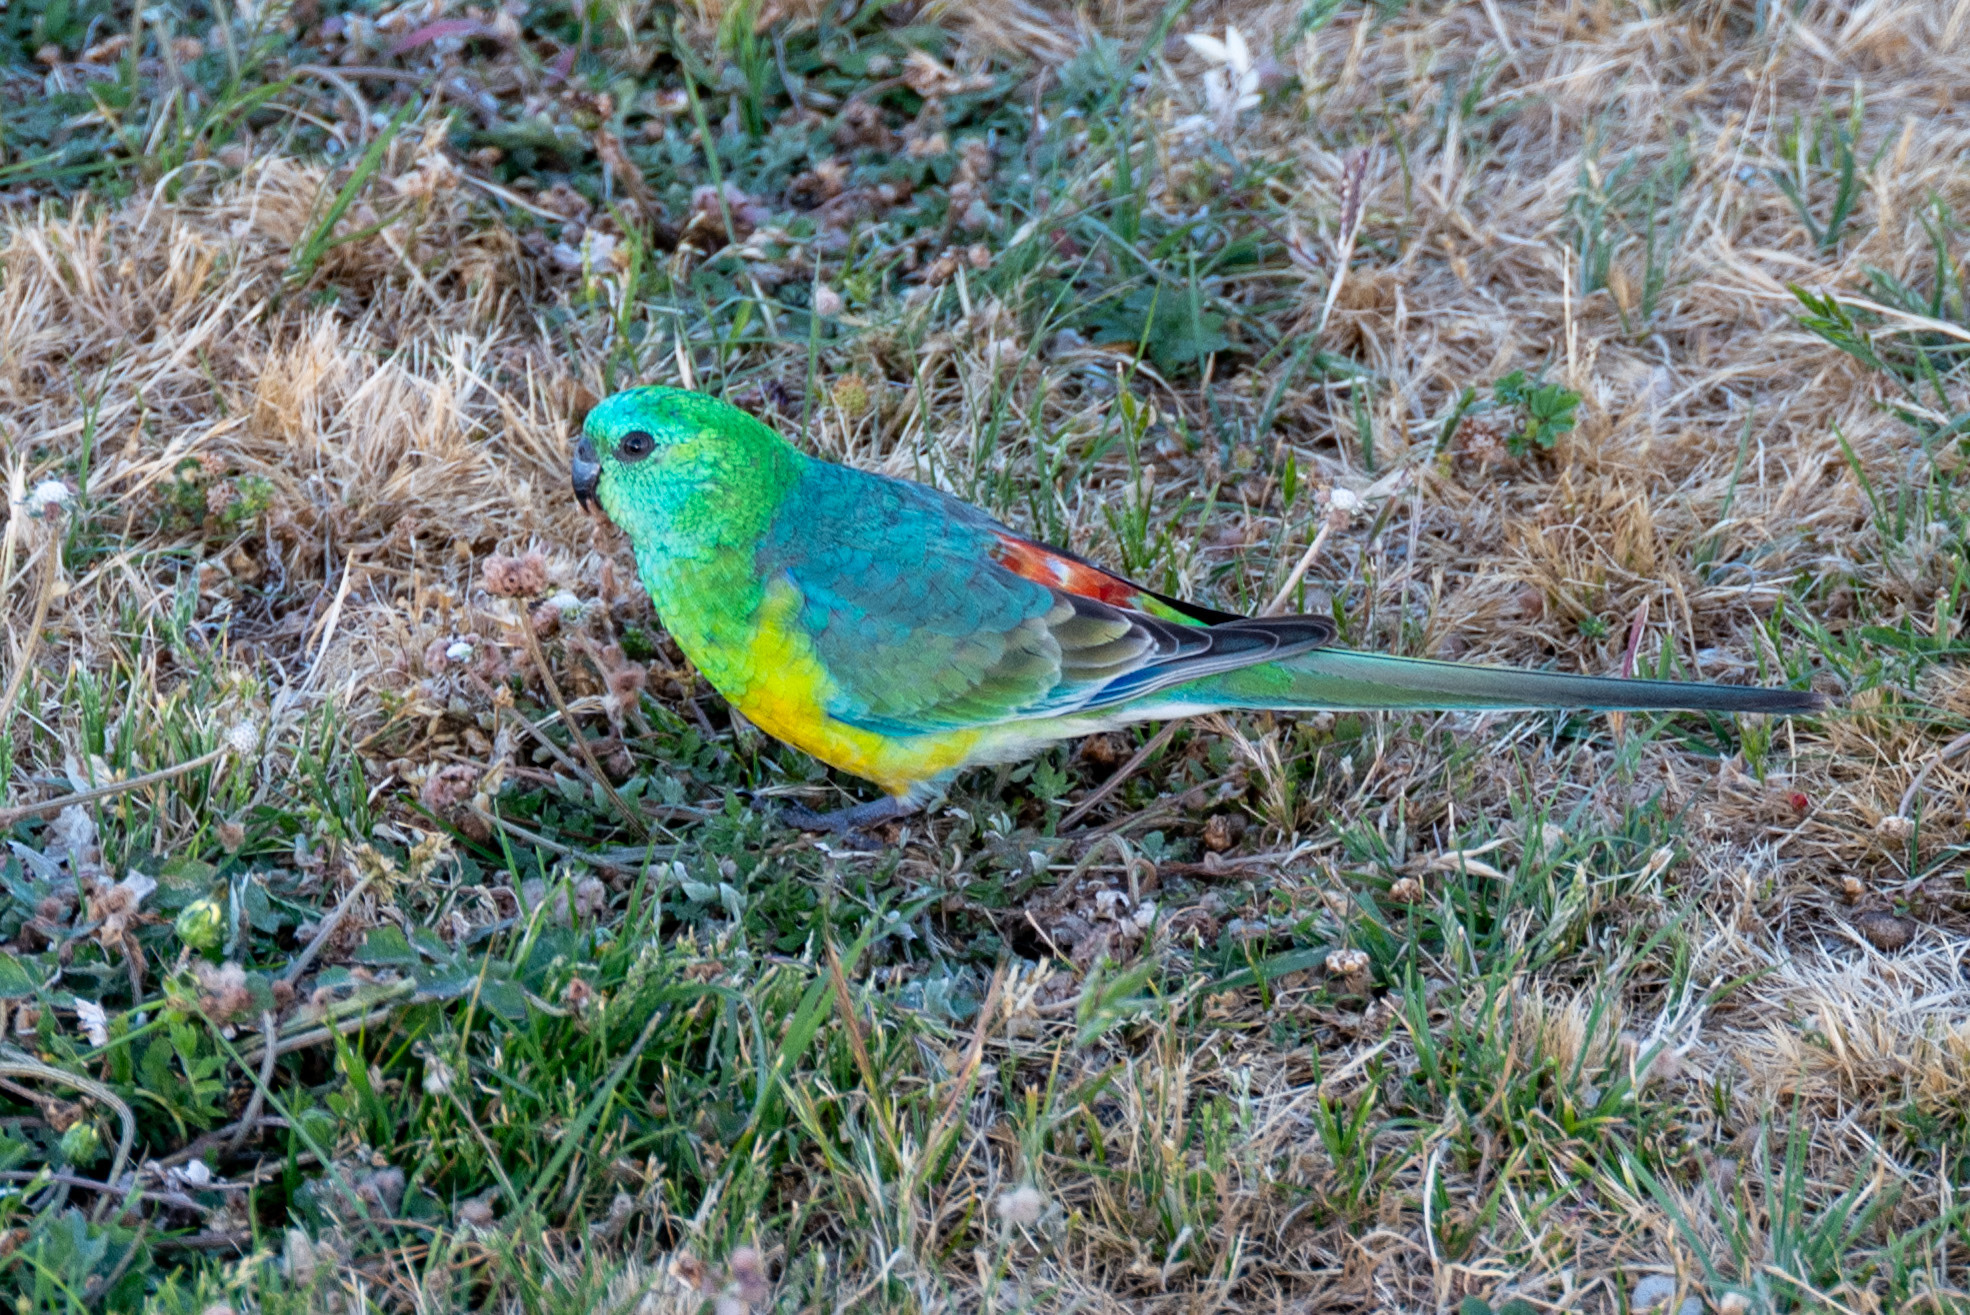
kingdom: Animalia
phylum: Chordata
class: Aves
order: Psittaciformes
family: Psittacidae
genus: Psephotus
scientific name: Psephotus haematonotus
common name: Red-rumped parrot
